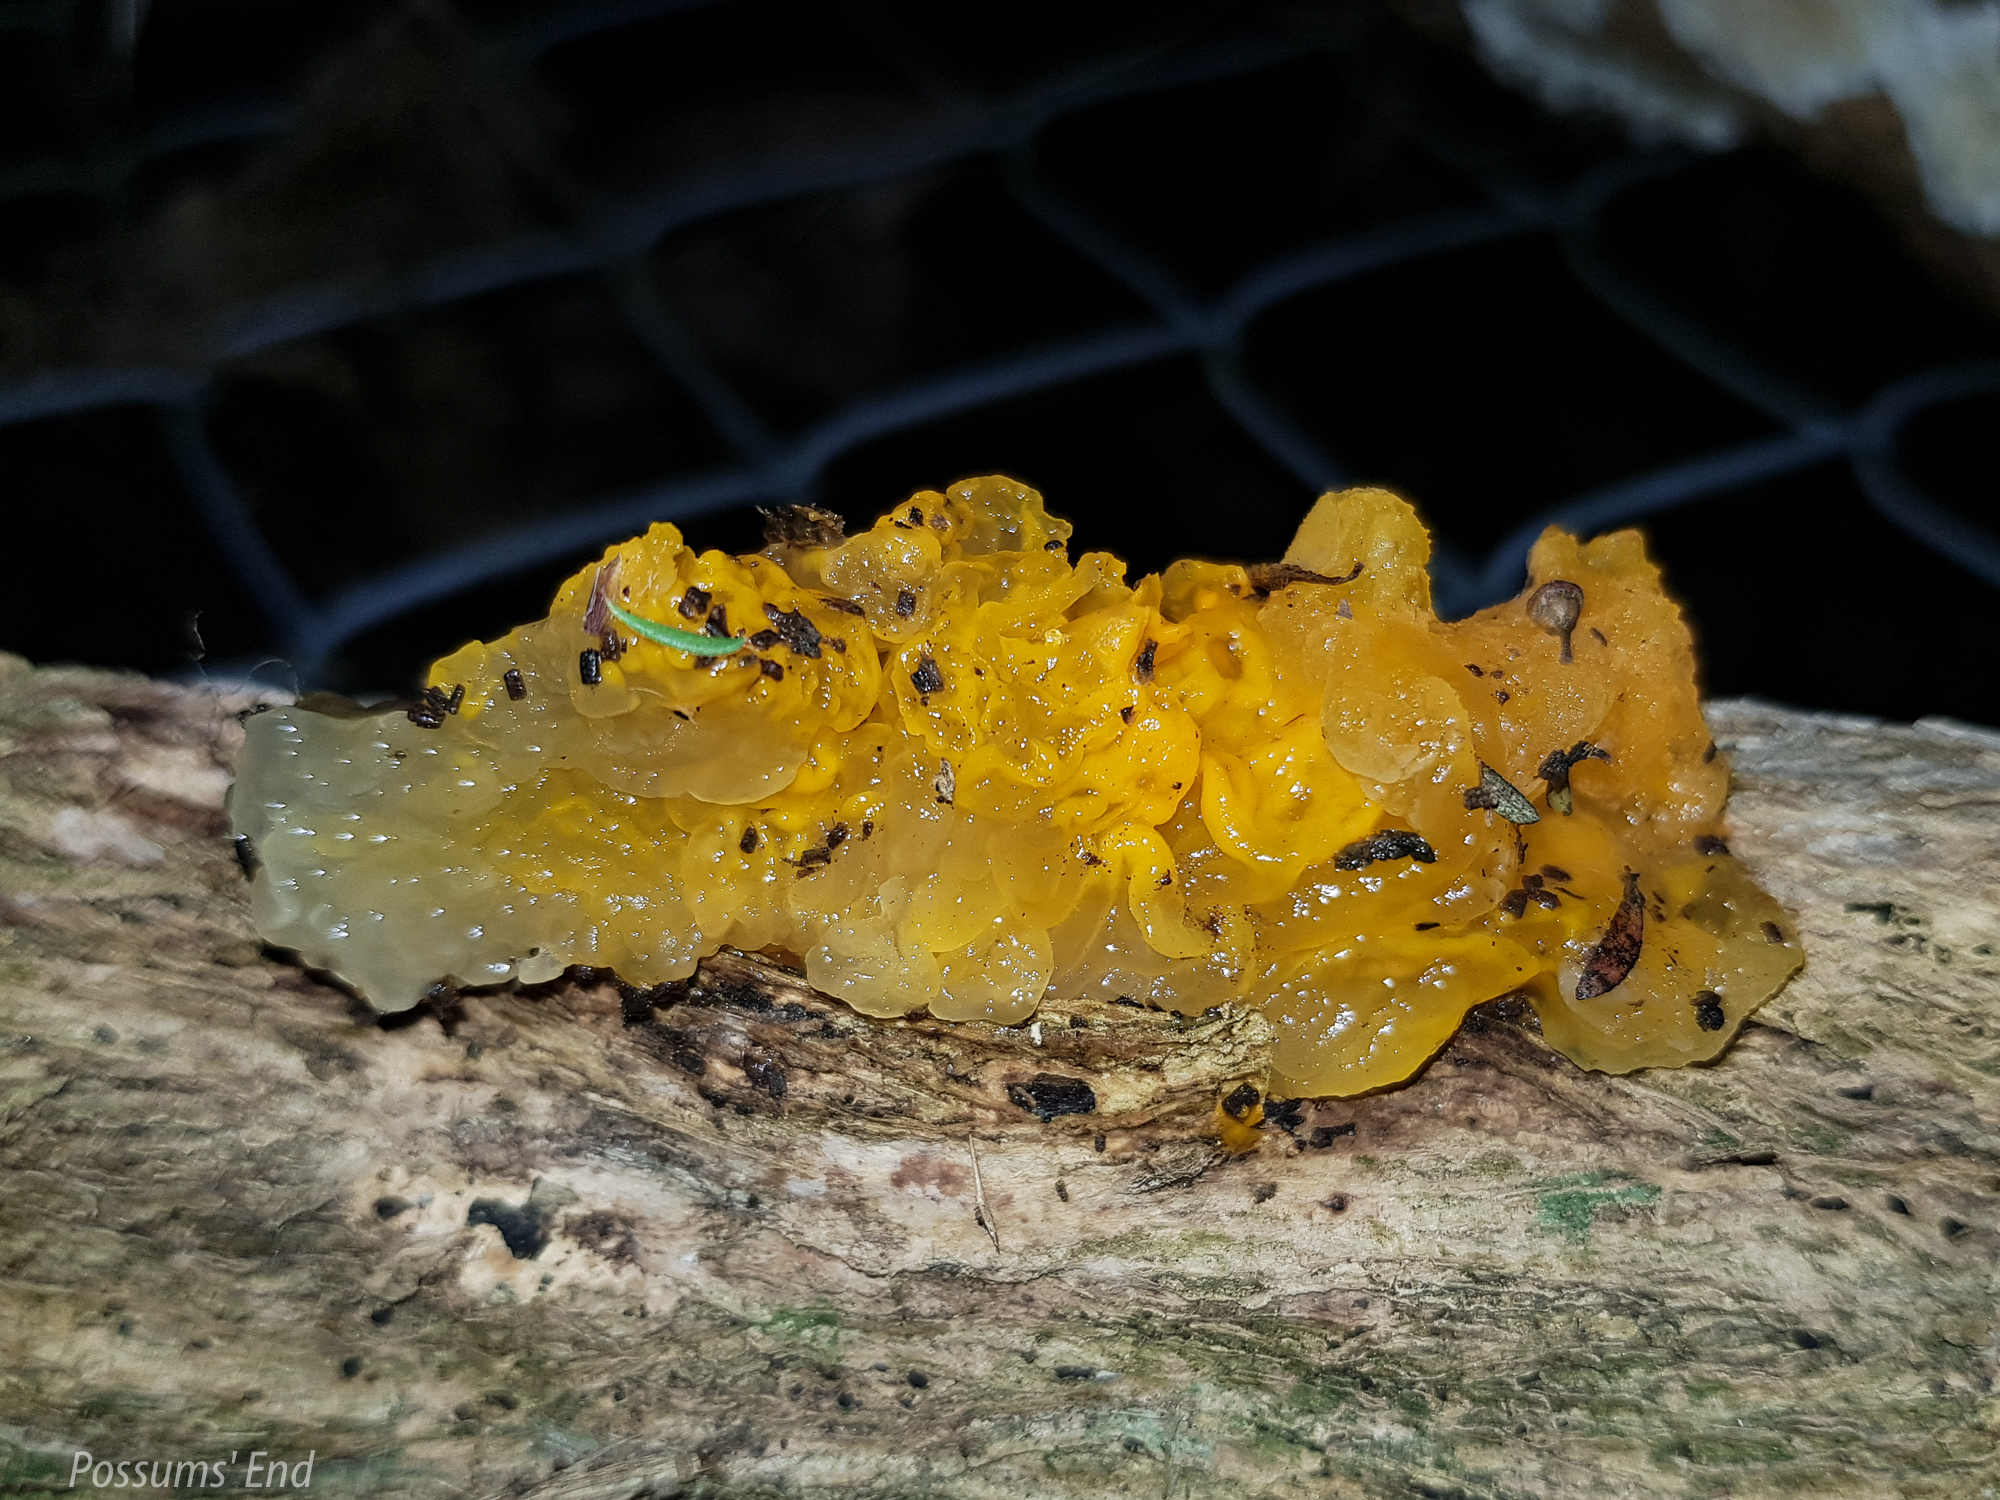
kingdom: Fungi
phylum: Basidiomycota
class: Tremellomycetes
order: Tremellales
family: Tremellaceae
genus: Tremella
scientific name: Tremella mesenterica
